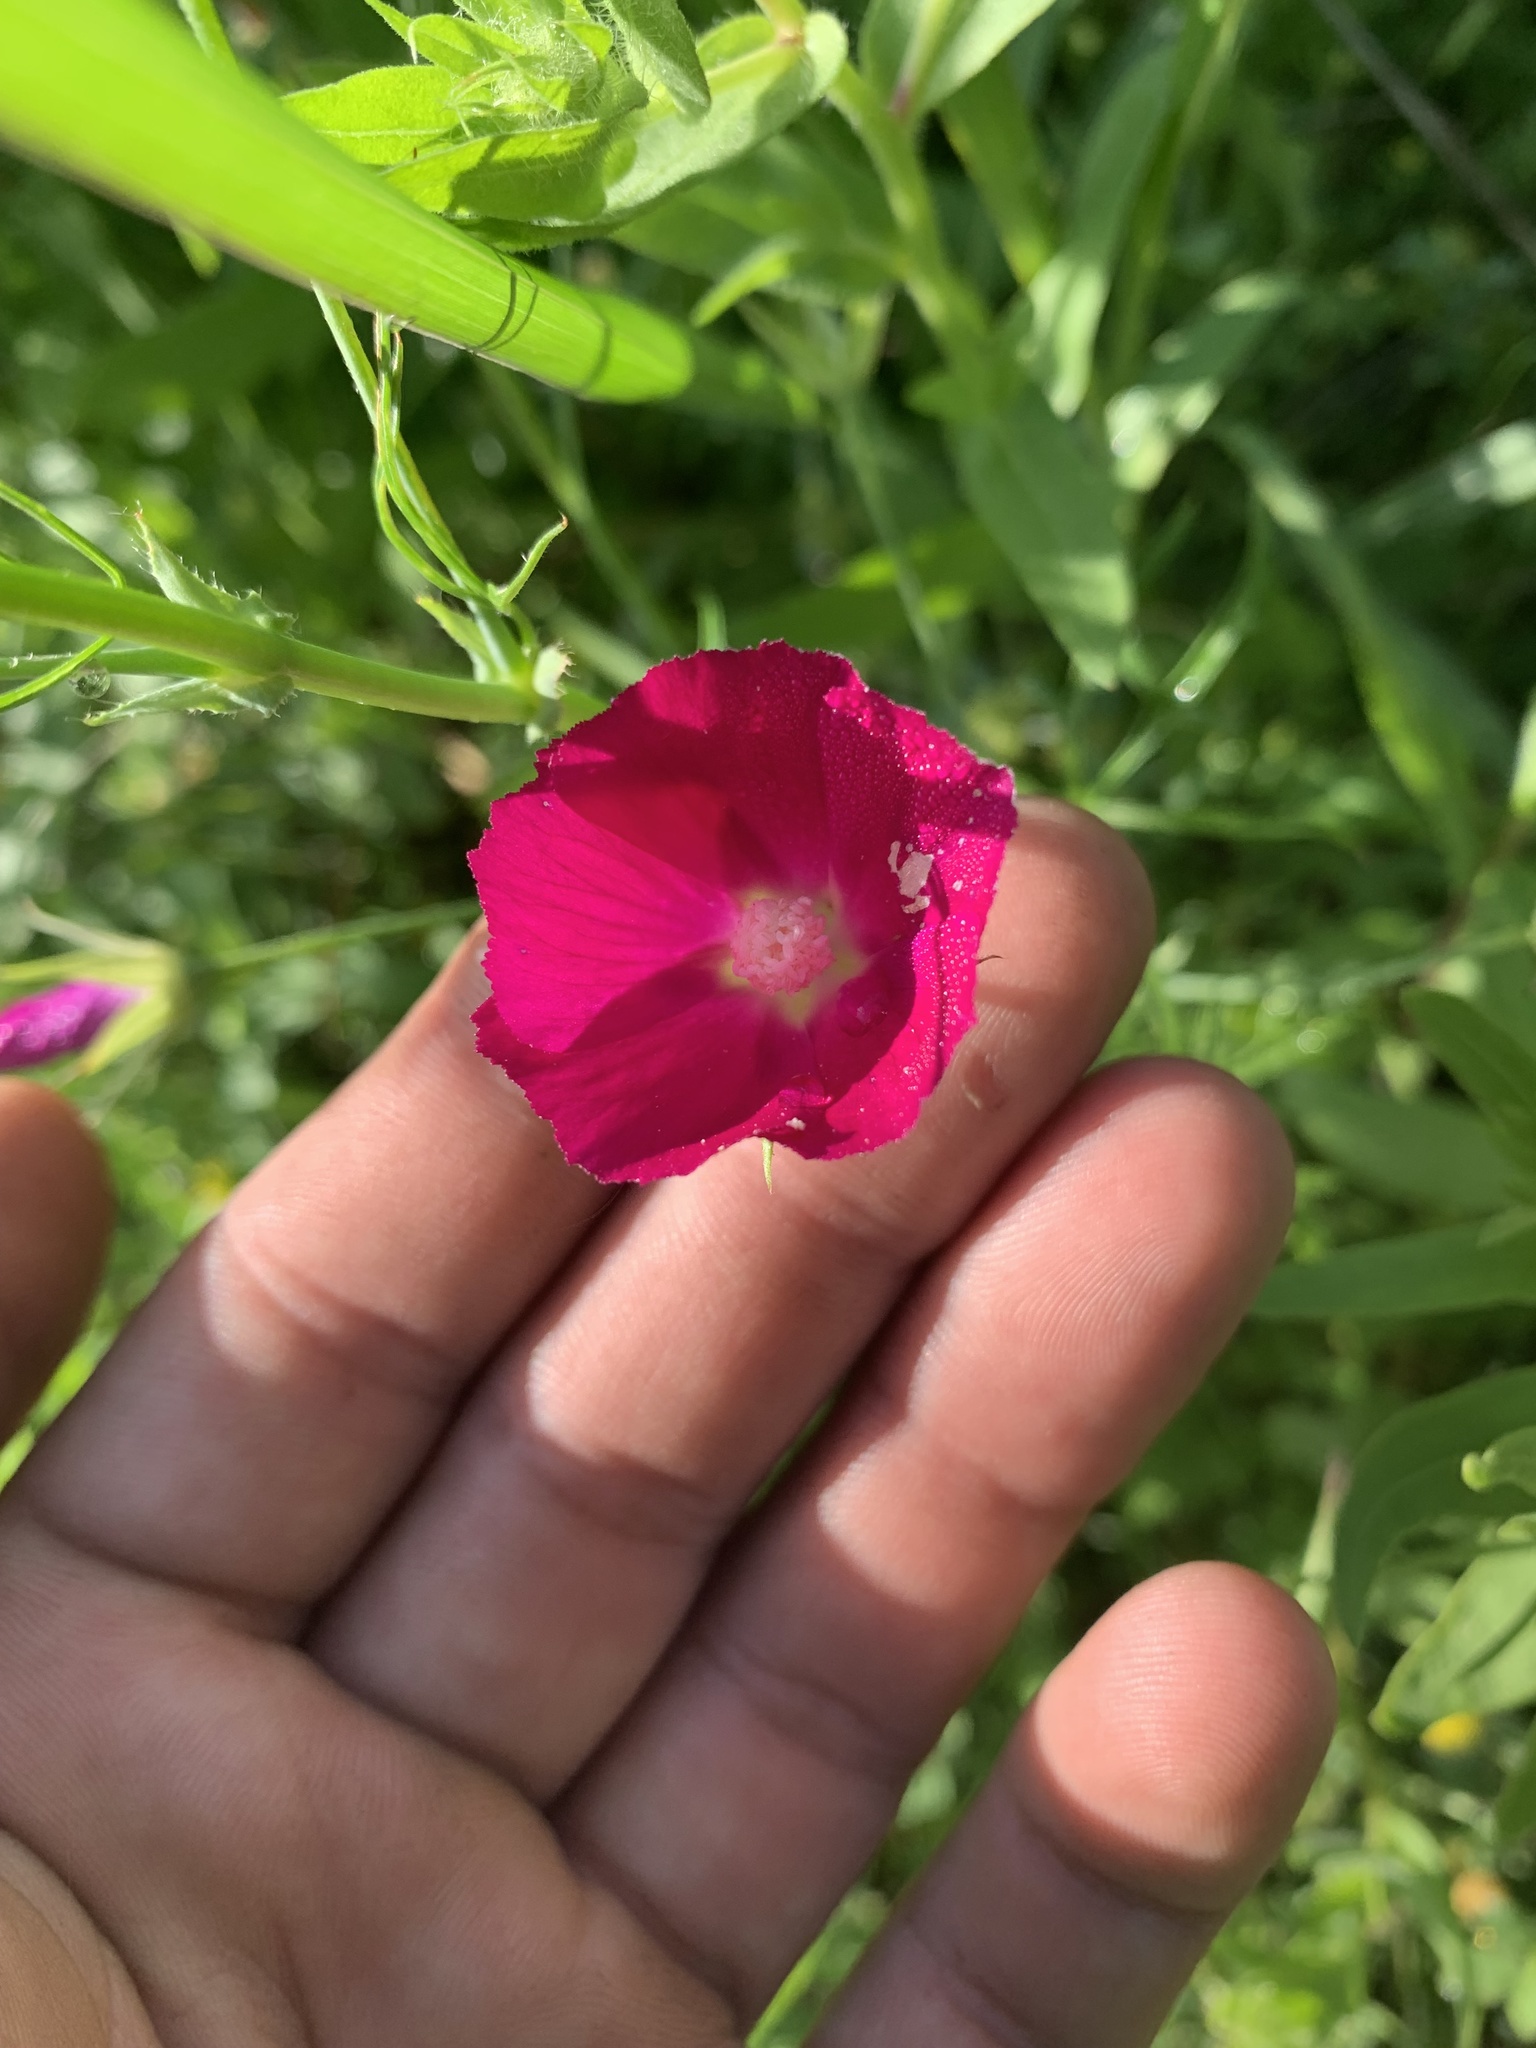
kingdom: Plantae
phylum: Tracheophyta
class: Magnoliopsida
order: Malvales
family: Malvaceae
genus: Callirhoe
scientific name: Callirhoe leiocarpa
